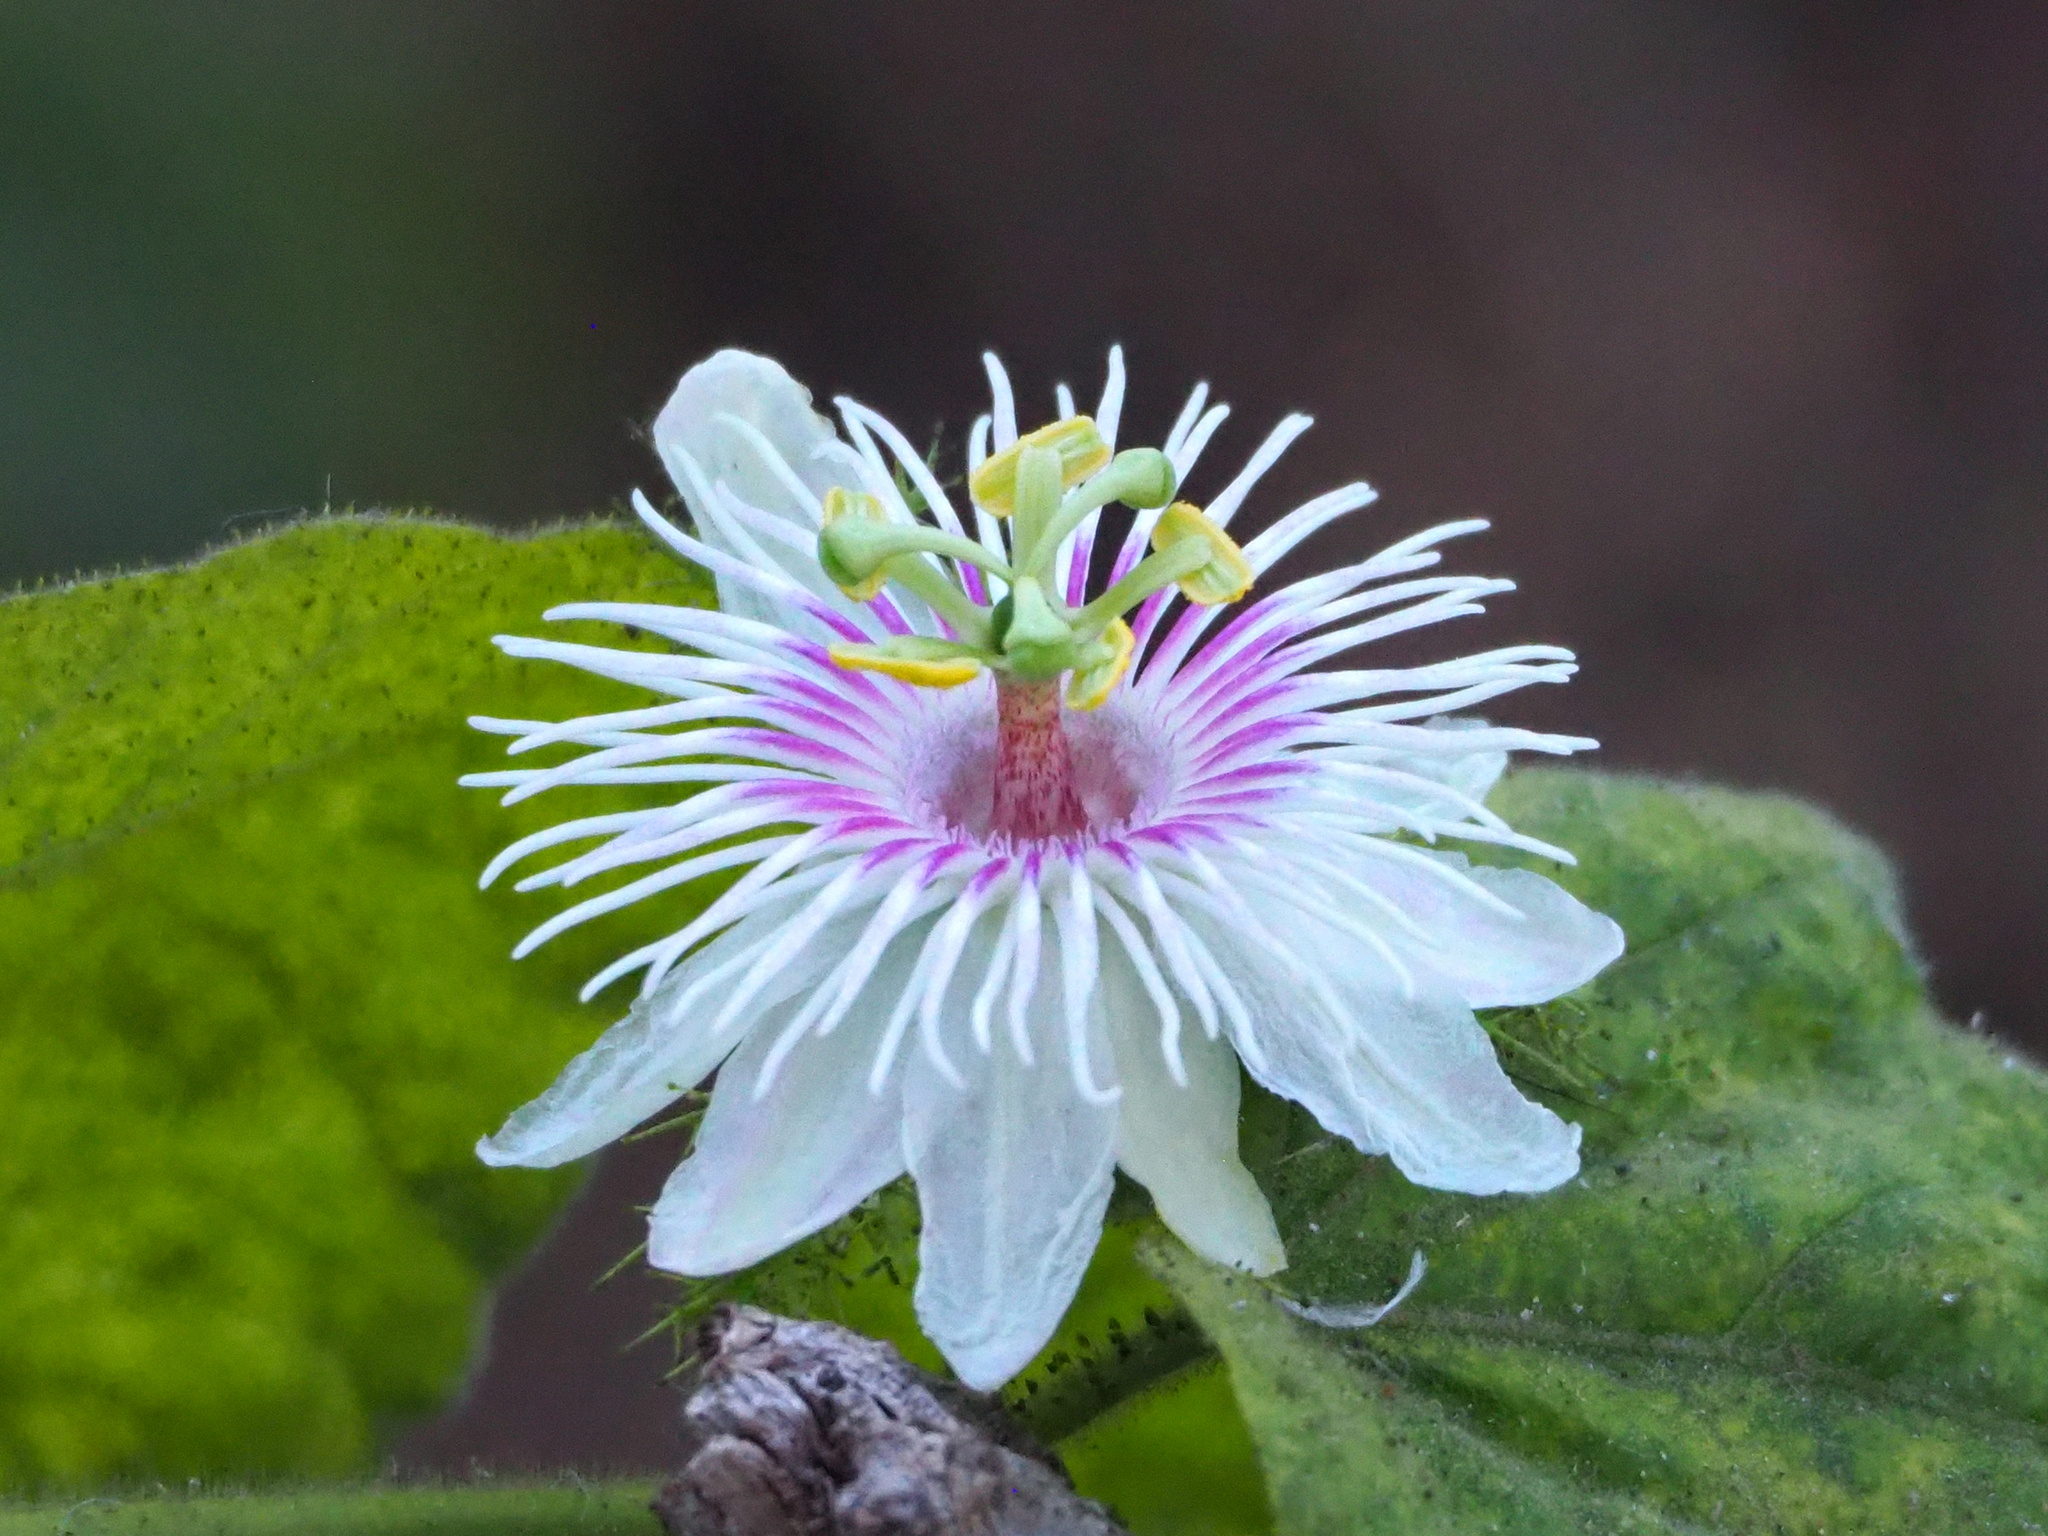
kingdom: Plantae
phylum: Tracheophyta
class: Magnoliopsida
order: Malpighiales
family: Passifloraceae
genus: Passiflora
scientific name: Passiflora vesicaria
